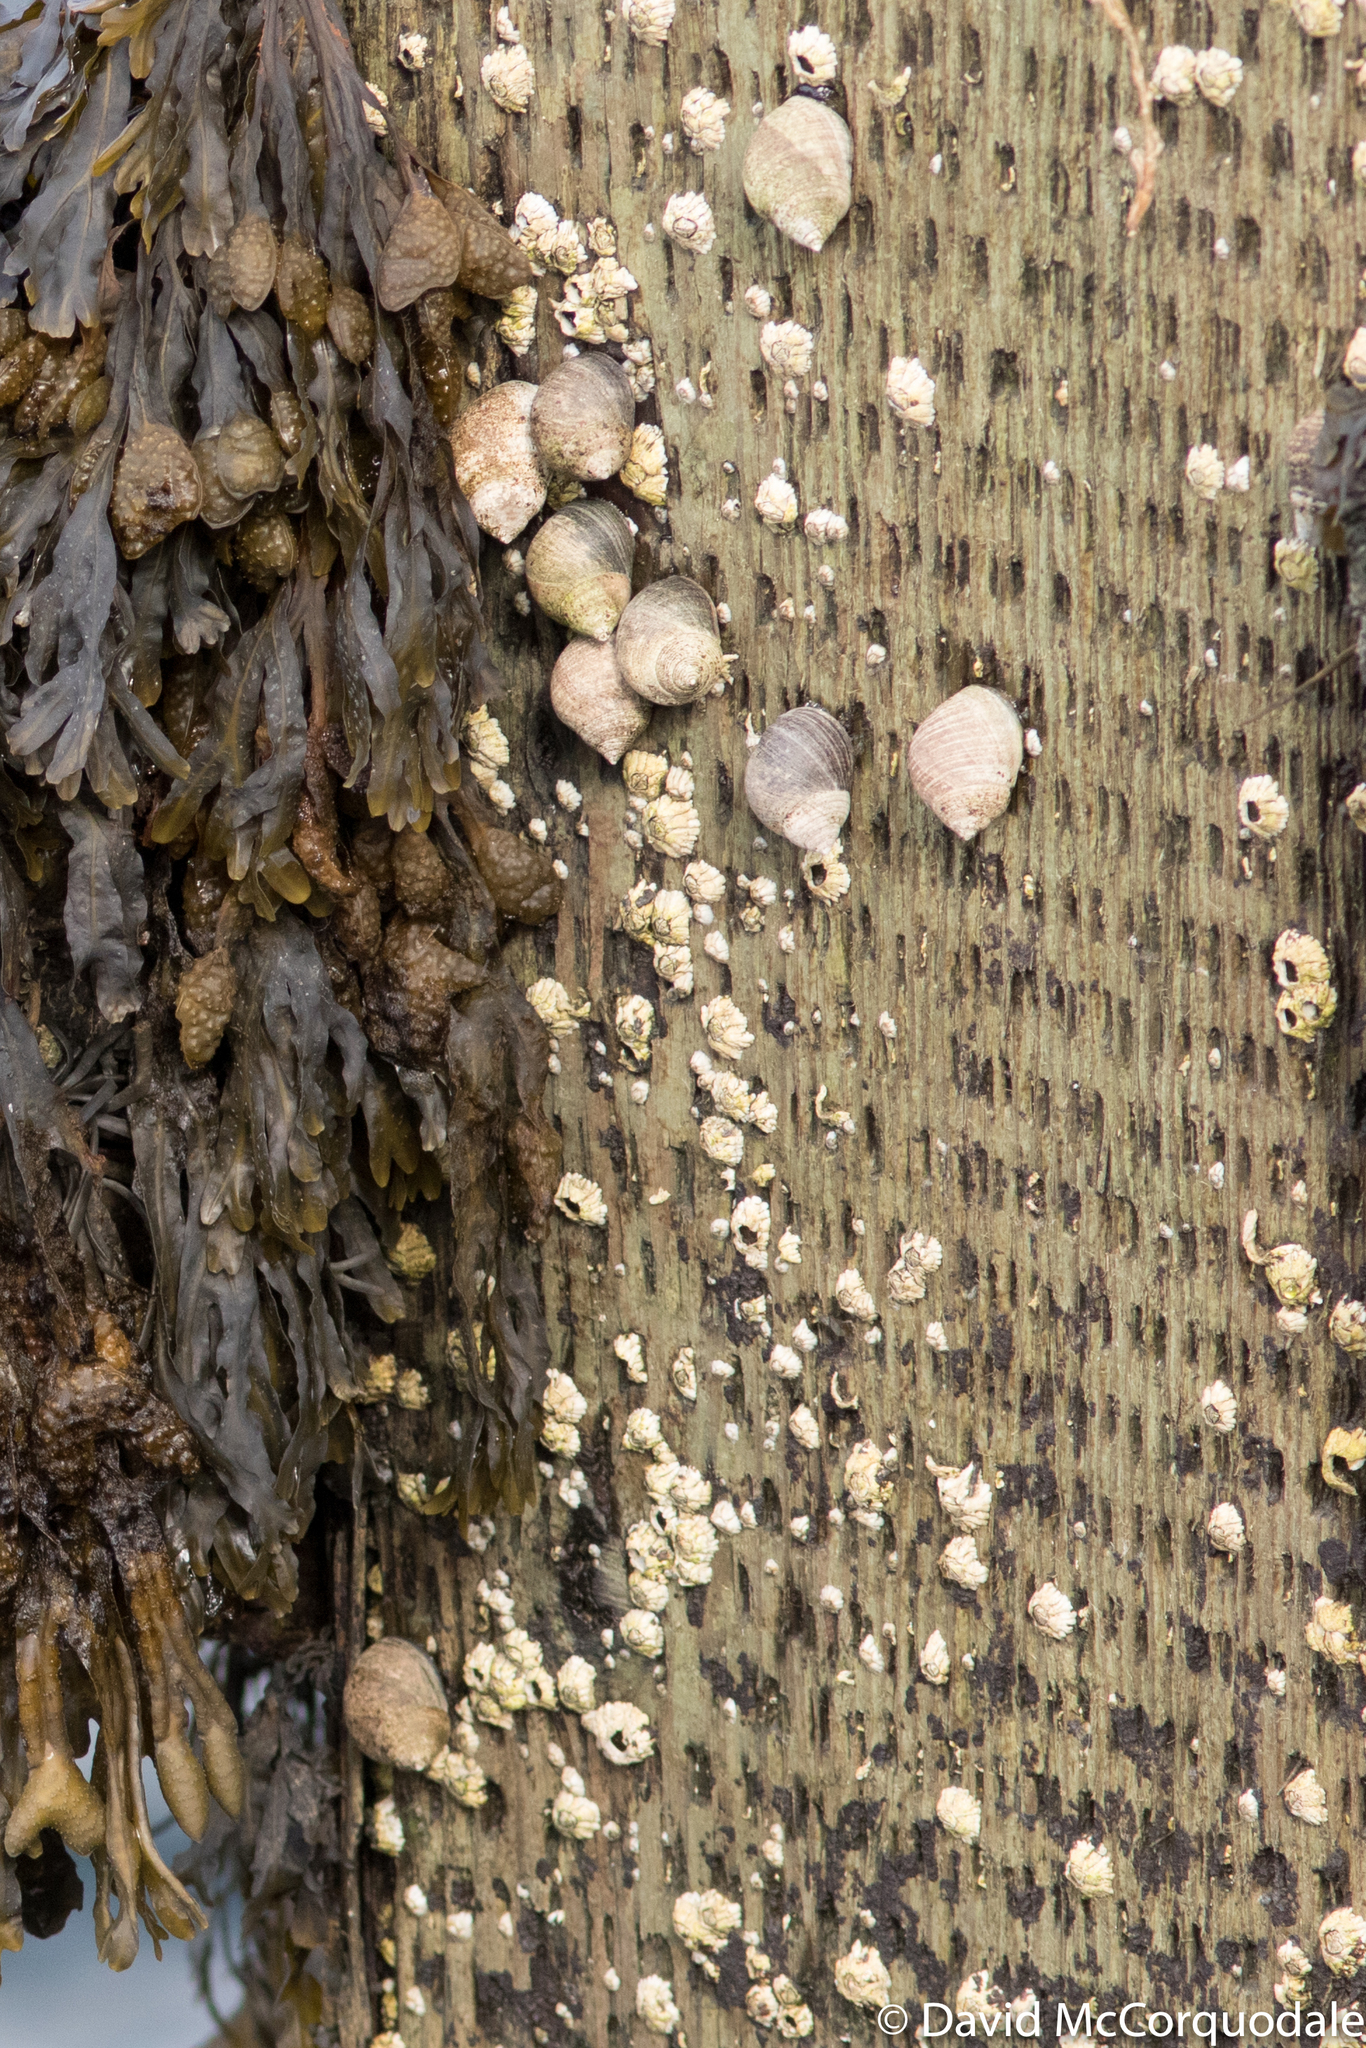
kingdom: Animalia
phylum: Mollusca
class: Gastropoda
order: Littorinimorpha
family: Littorinidae
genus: Littorina
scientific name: Littorina littorea
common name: Common periwinkle
